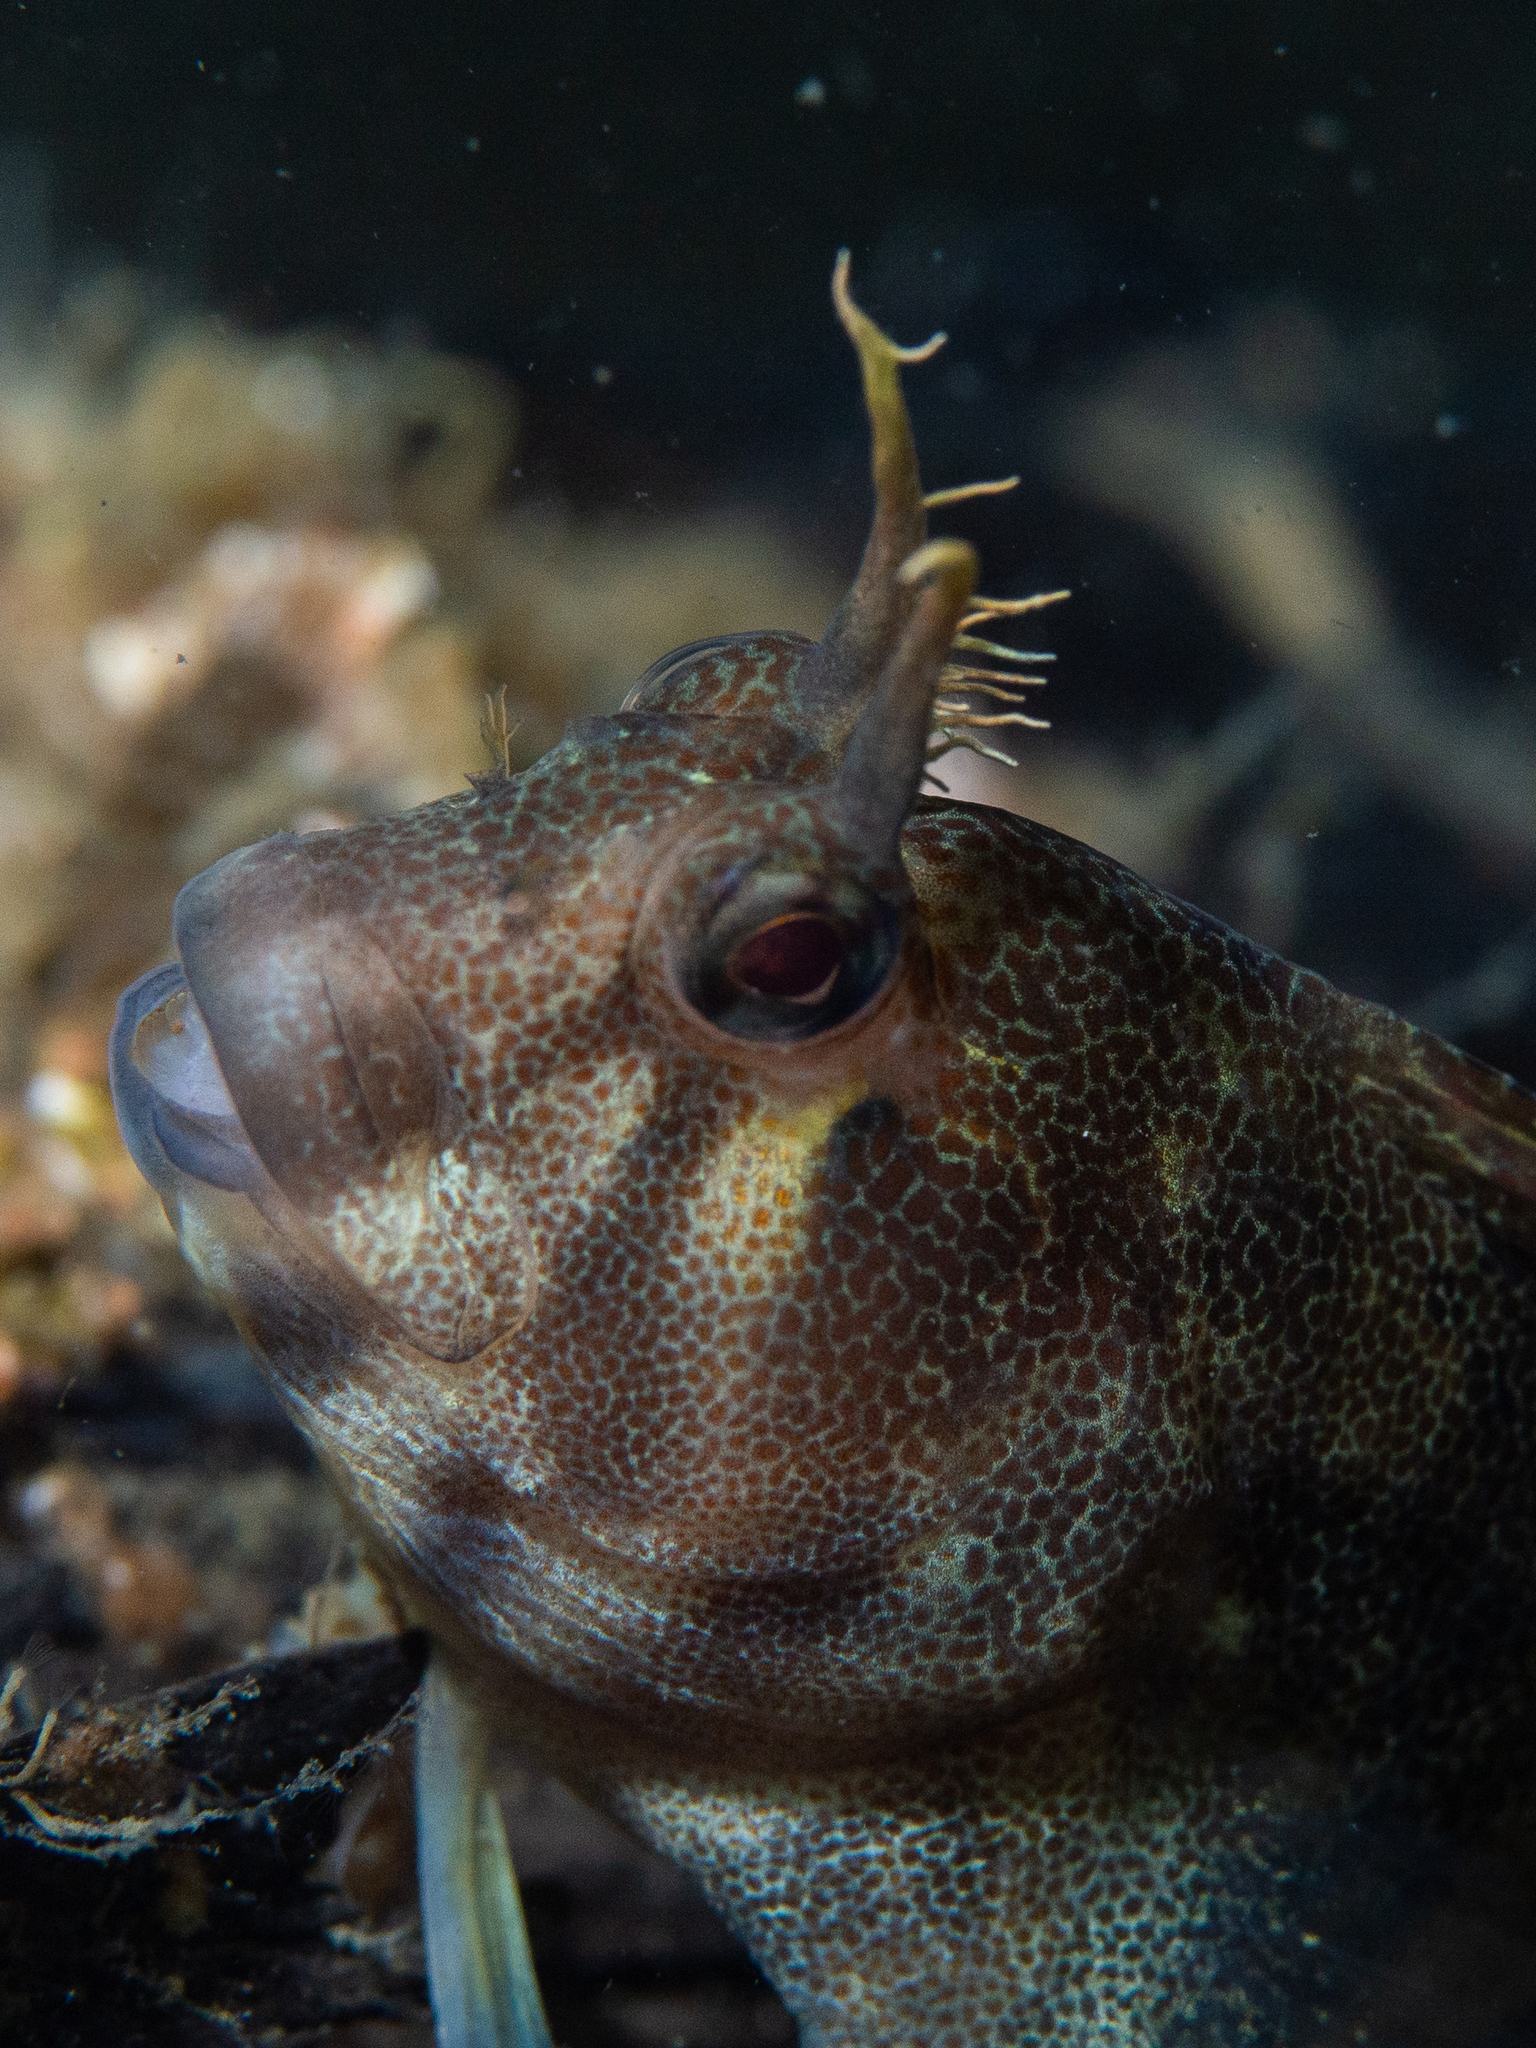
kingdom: Animalia
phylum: Chordata
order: Perciformes
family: Blenniidae
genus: Parablennius
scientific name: Parablennius tasmanianus
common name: Tasmanian blenny
